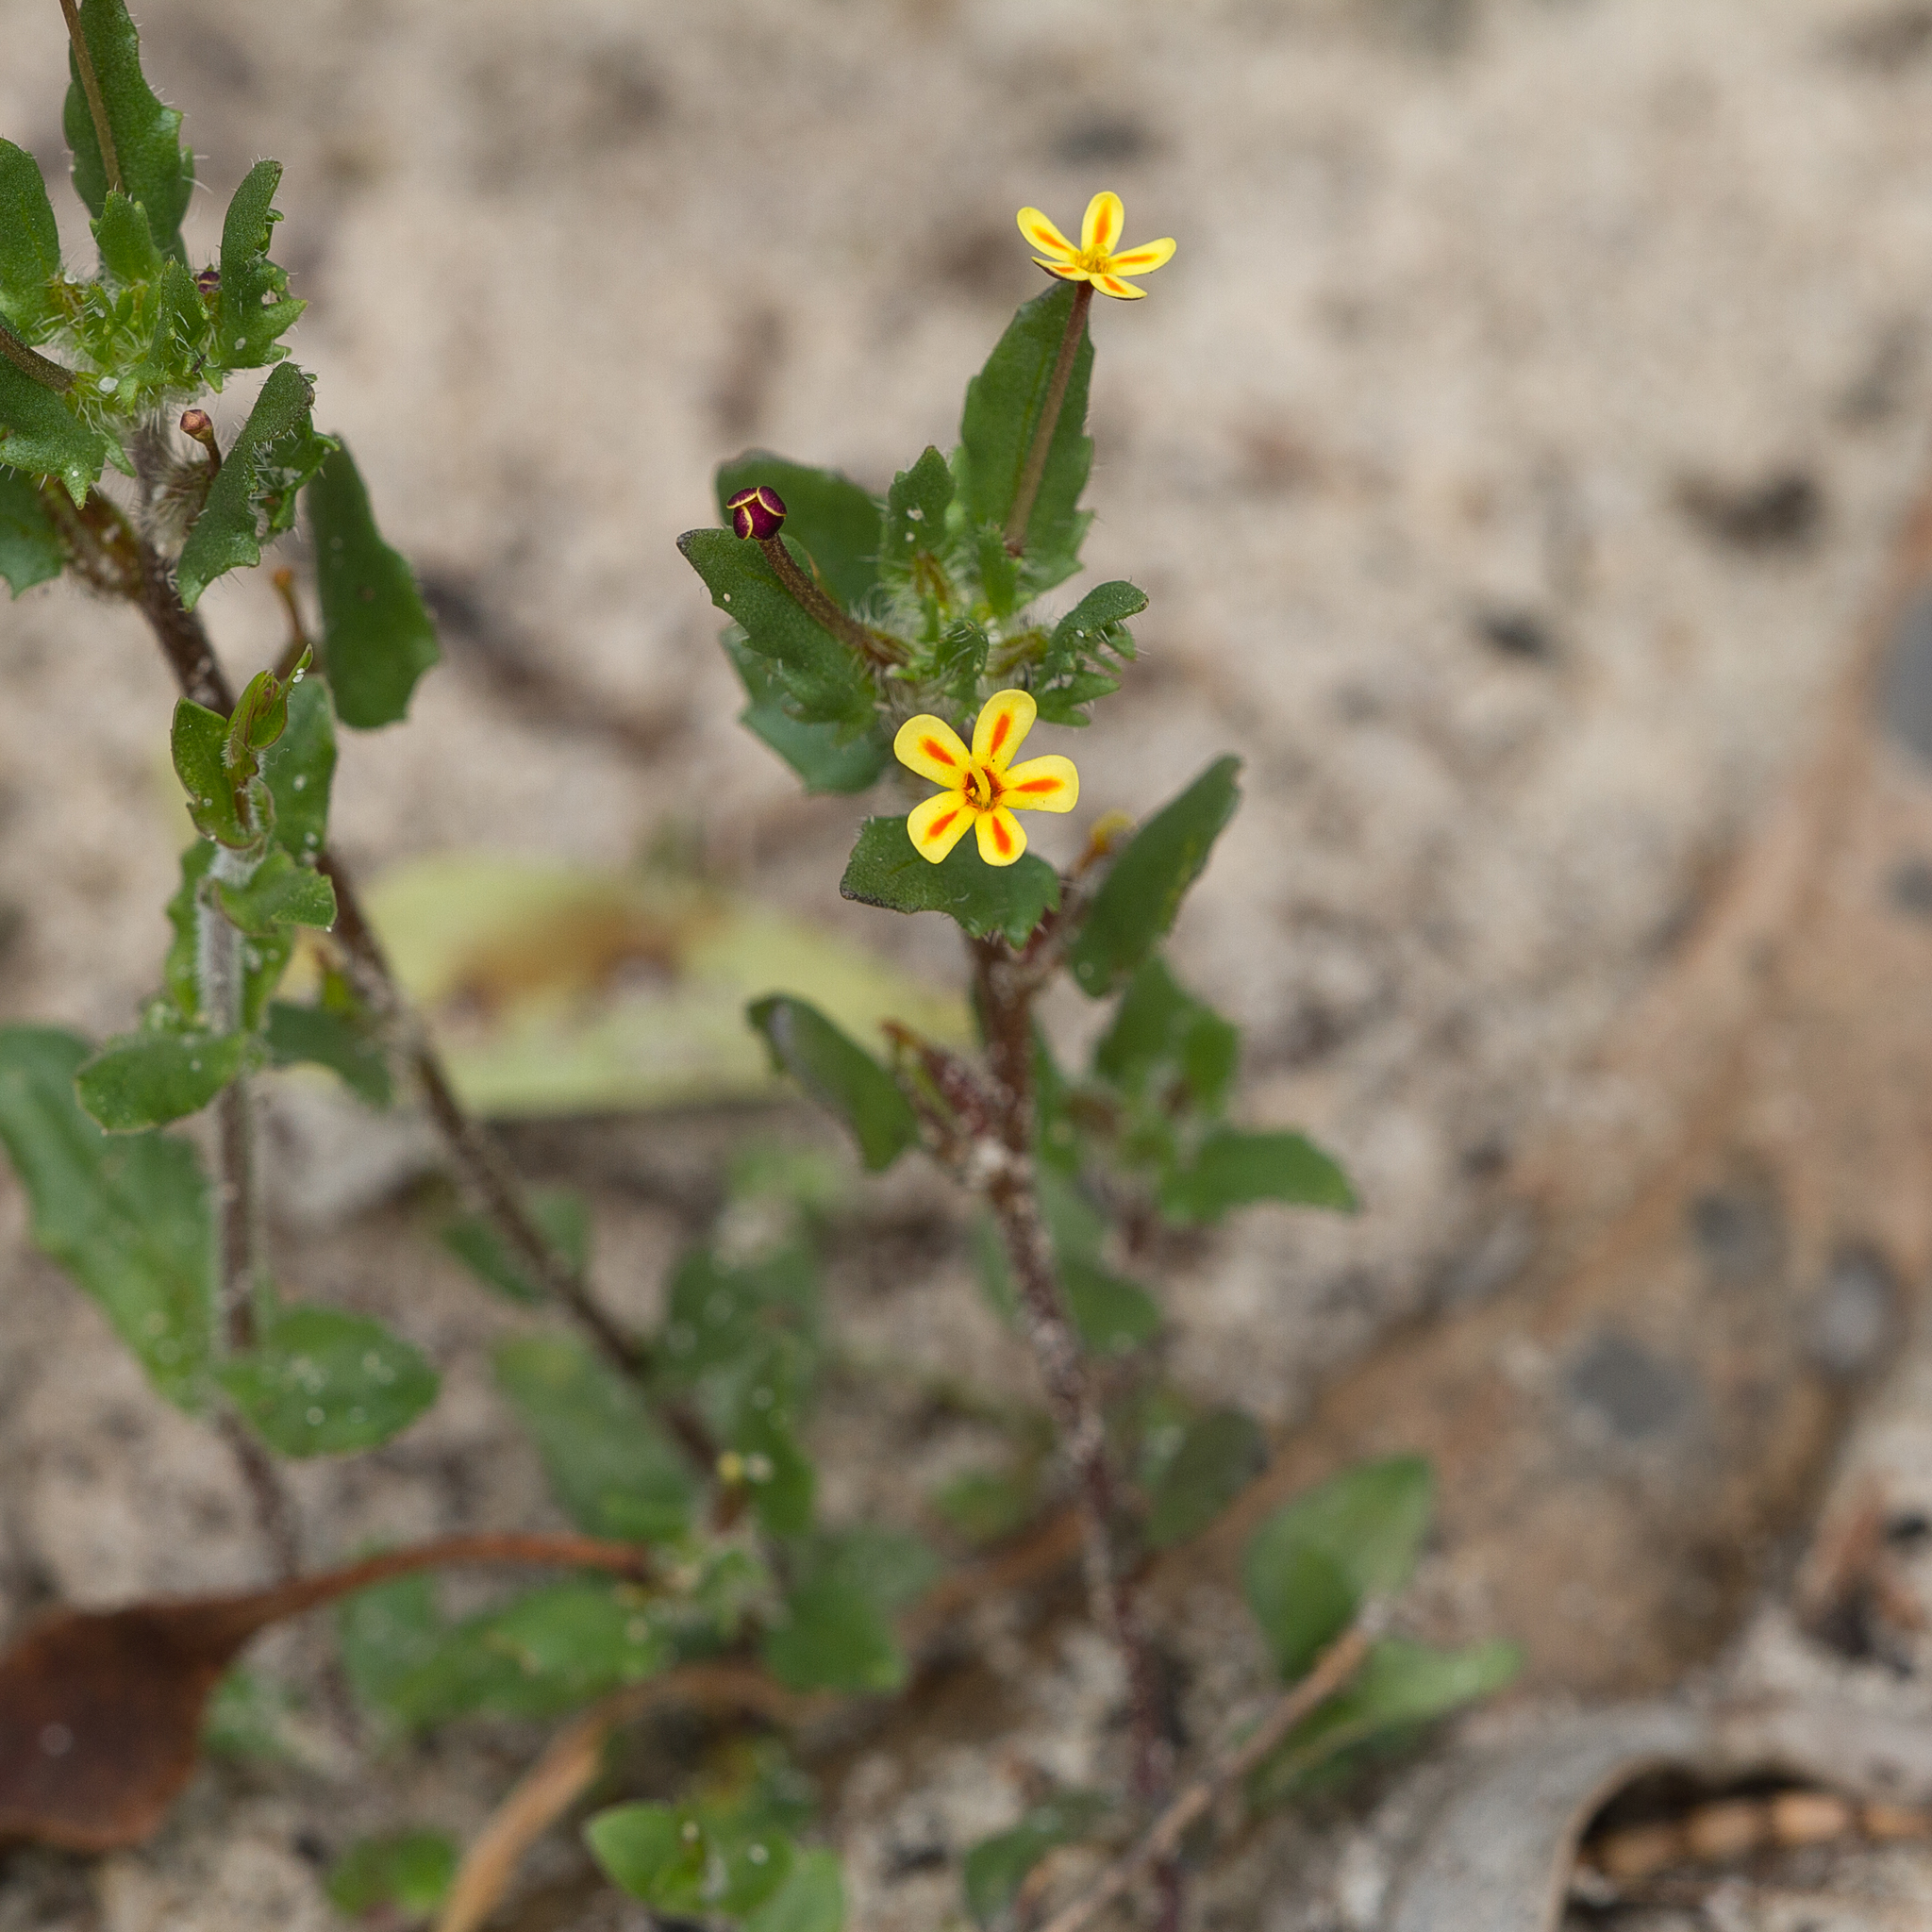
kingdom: Plantae
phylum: Tracheophyta
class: Magnoliopsida
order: Lamiales
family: Scrophulariaceae
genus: Zaluzianskya
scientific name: Zaluzianskya divaricata
